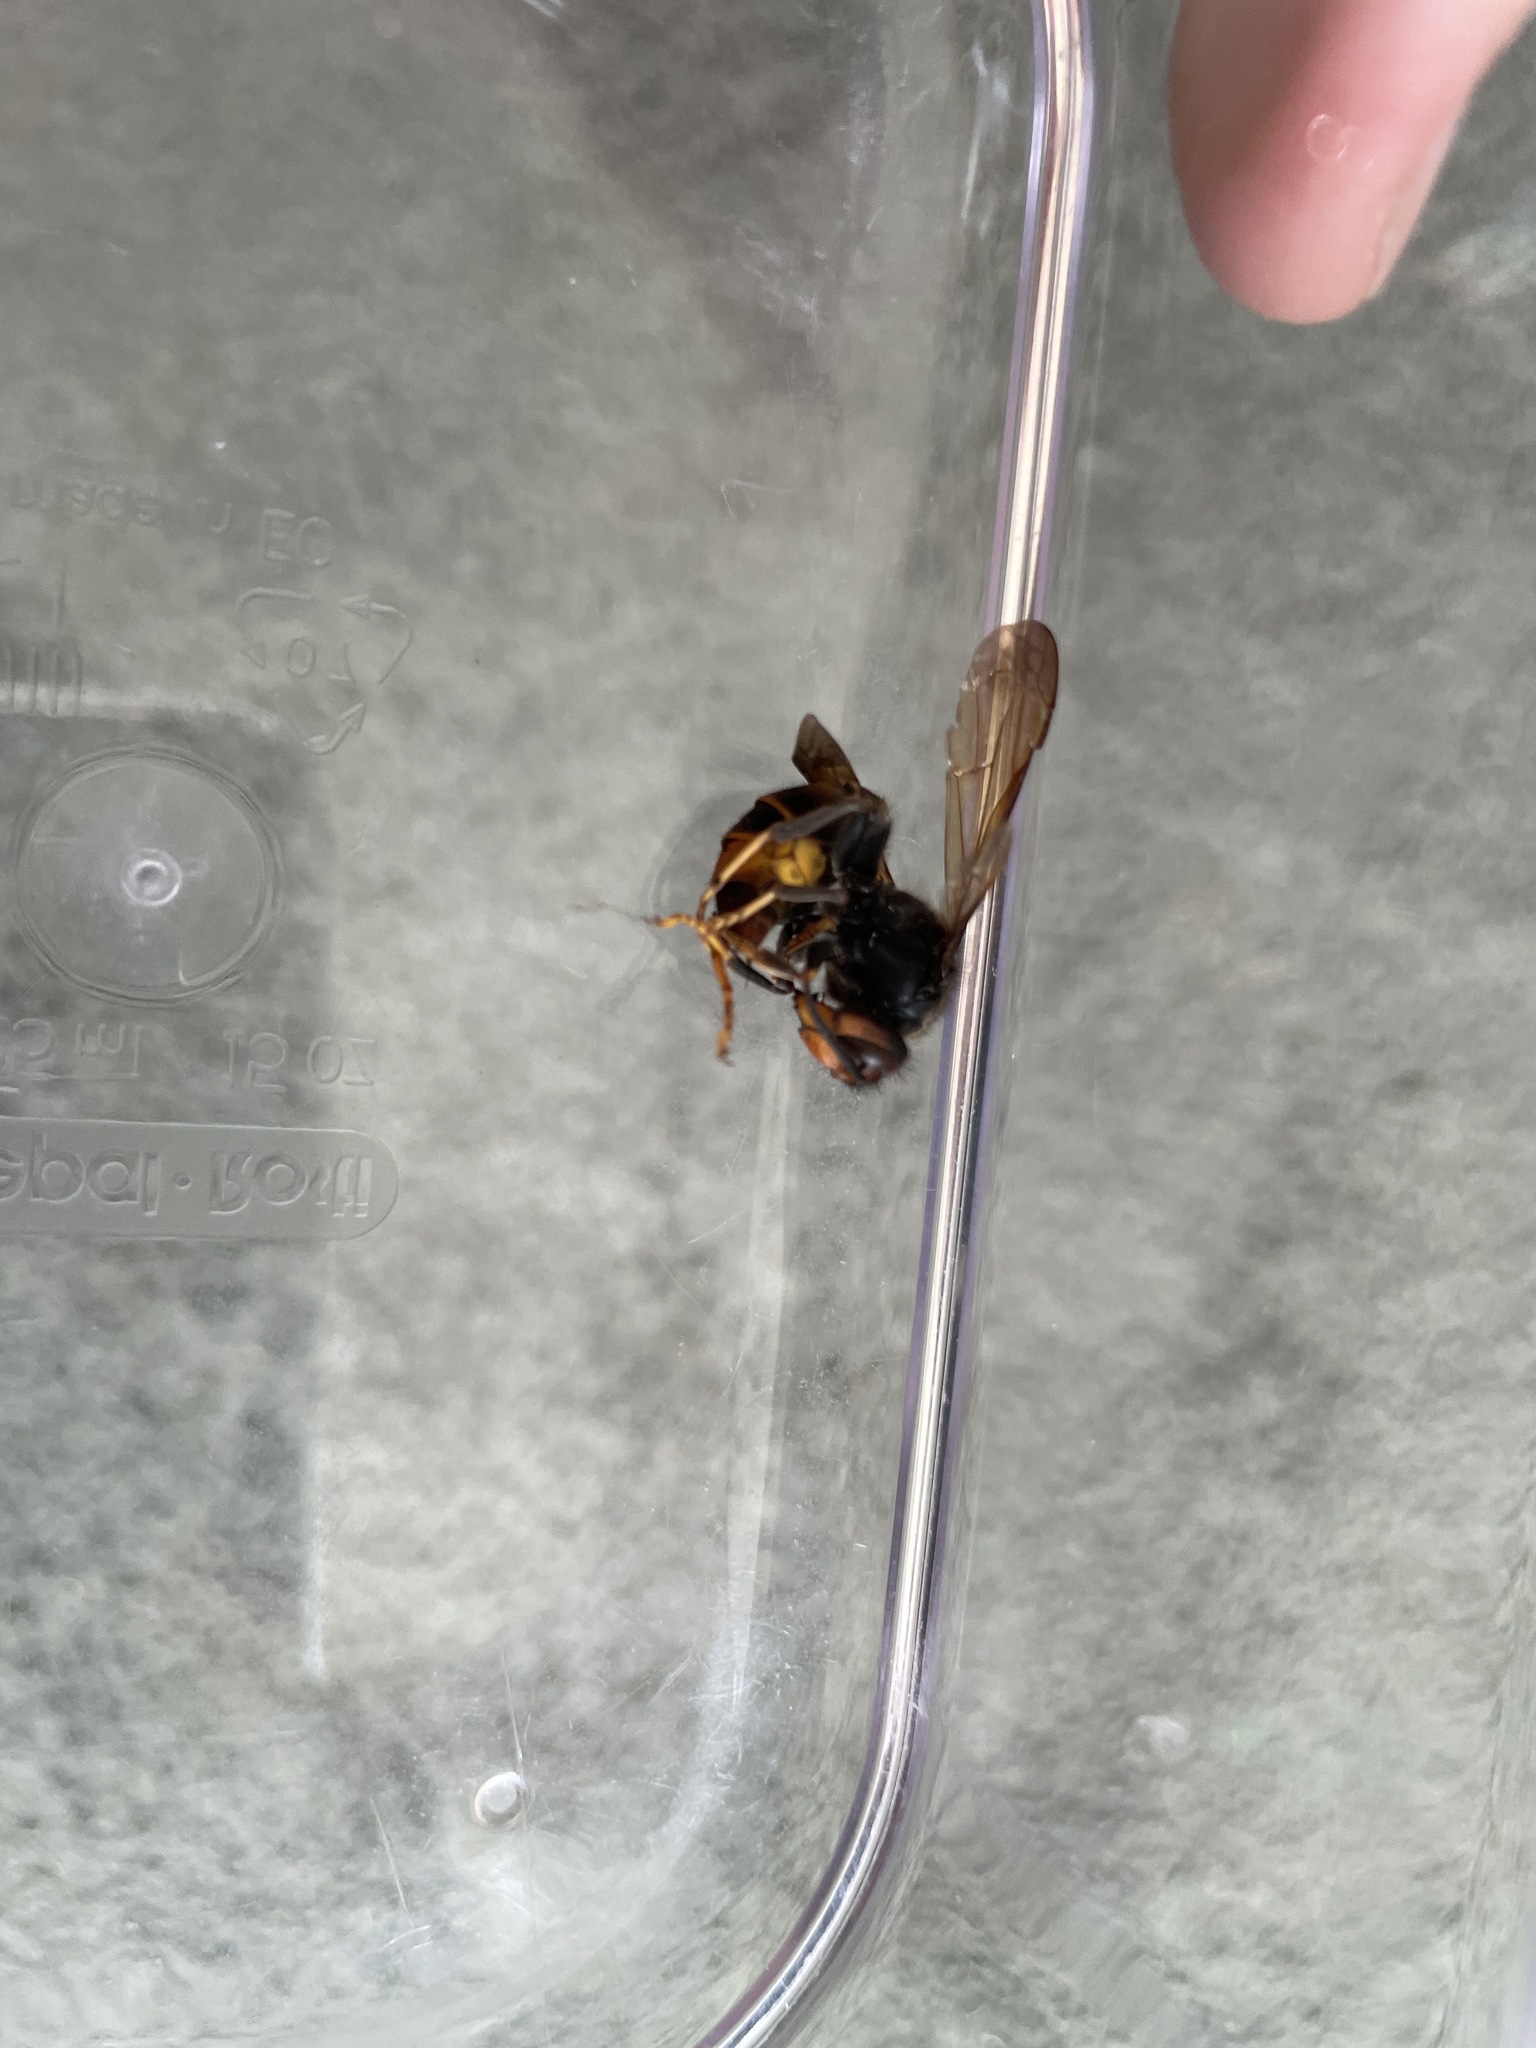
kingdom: Animalia
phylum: Arthropoda
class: Insecta
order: Hymenoptera
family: Vespidae
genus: Vespa
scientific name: Vespa velutina
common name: Asian hornet
